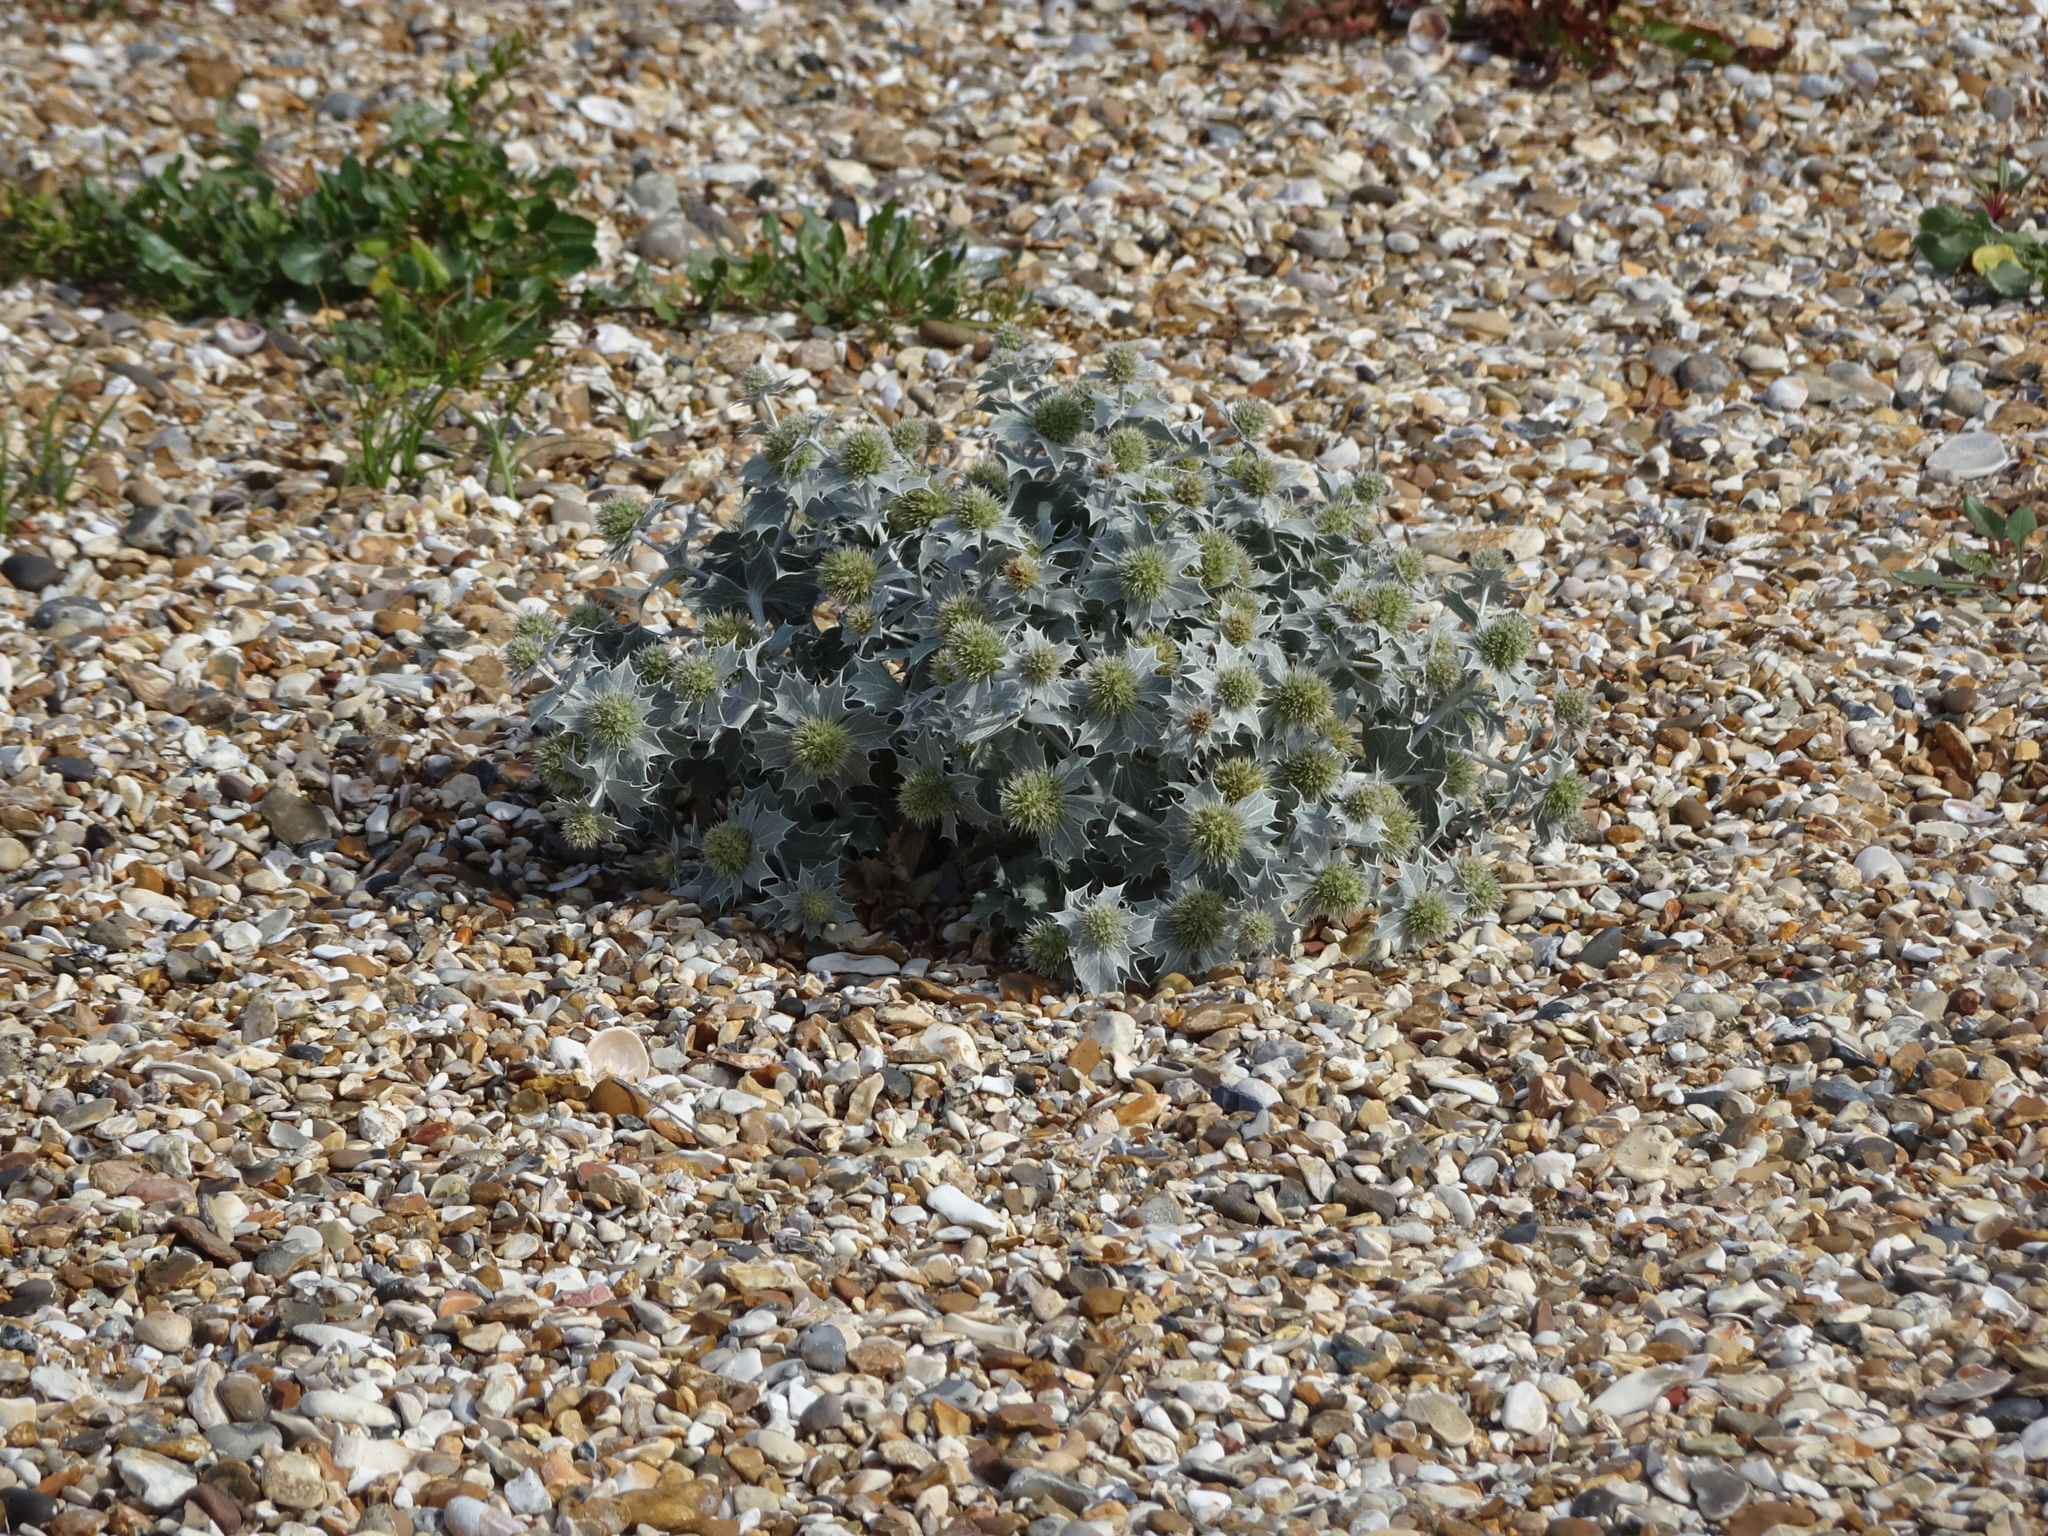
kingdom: Plantae
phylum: Tracheophyta
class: Magnoliopsida
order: Apiales
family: Apiaceae
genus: Eryngium
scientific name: Eryngium maritimum
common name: Sea-holly
